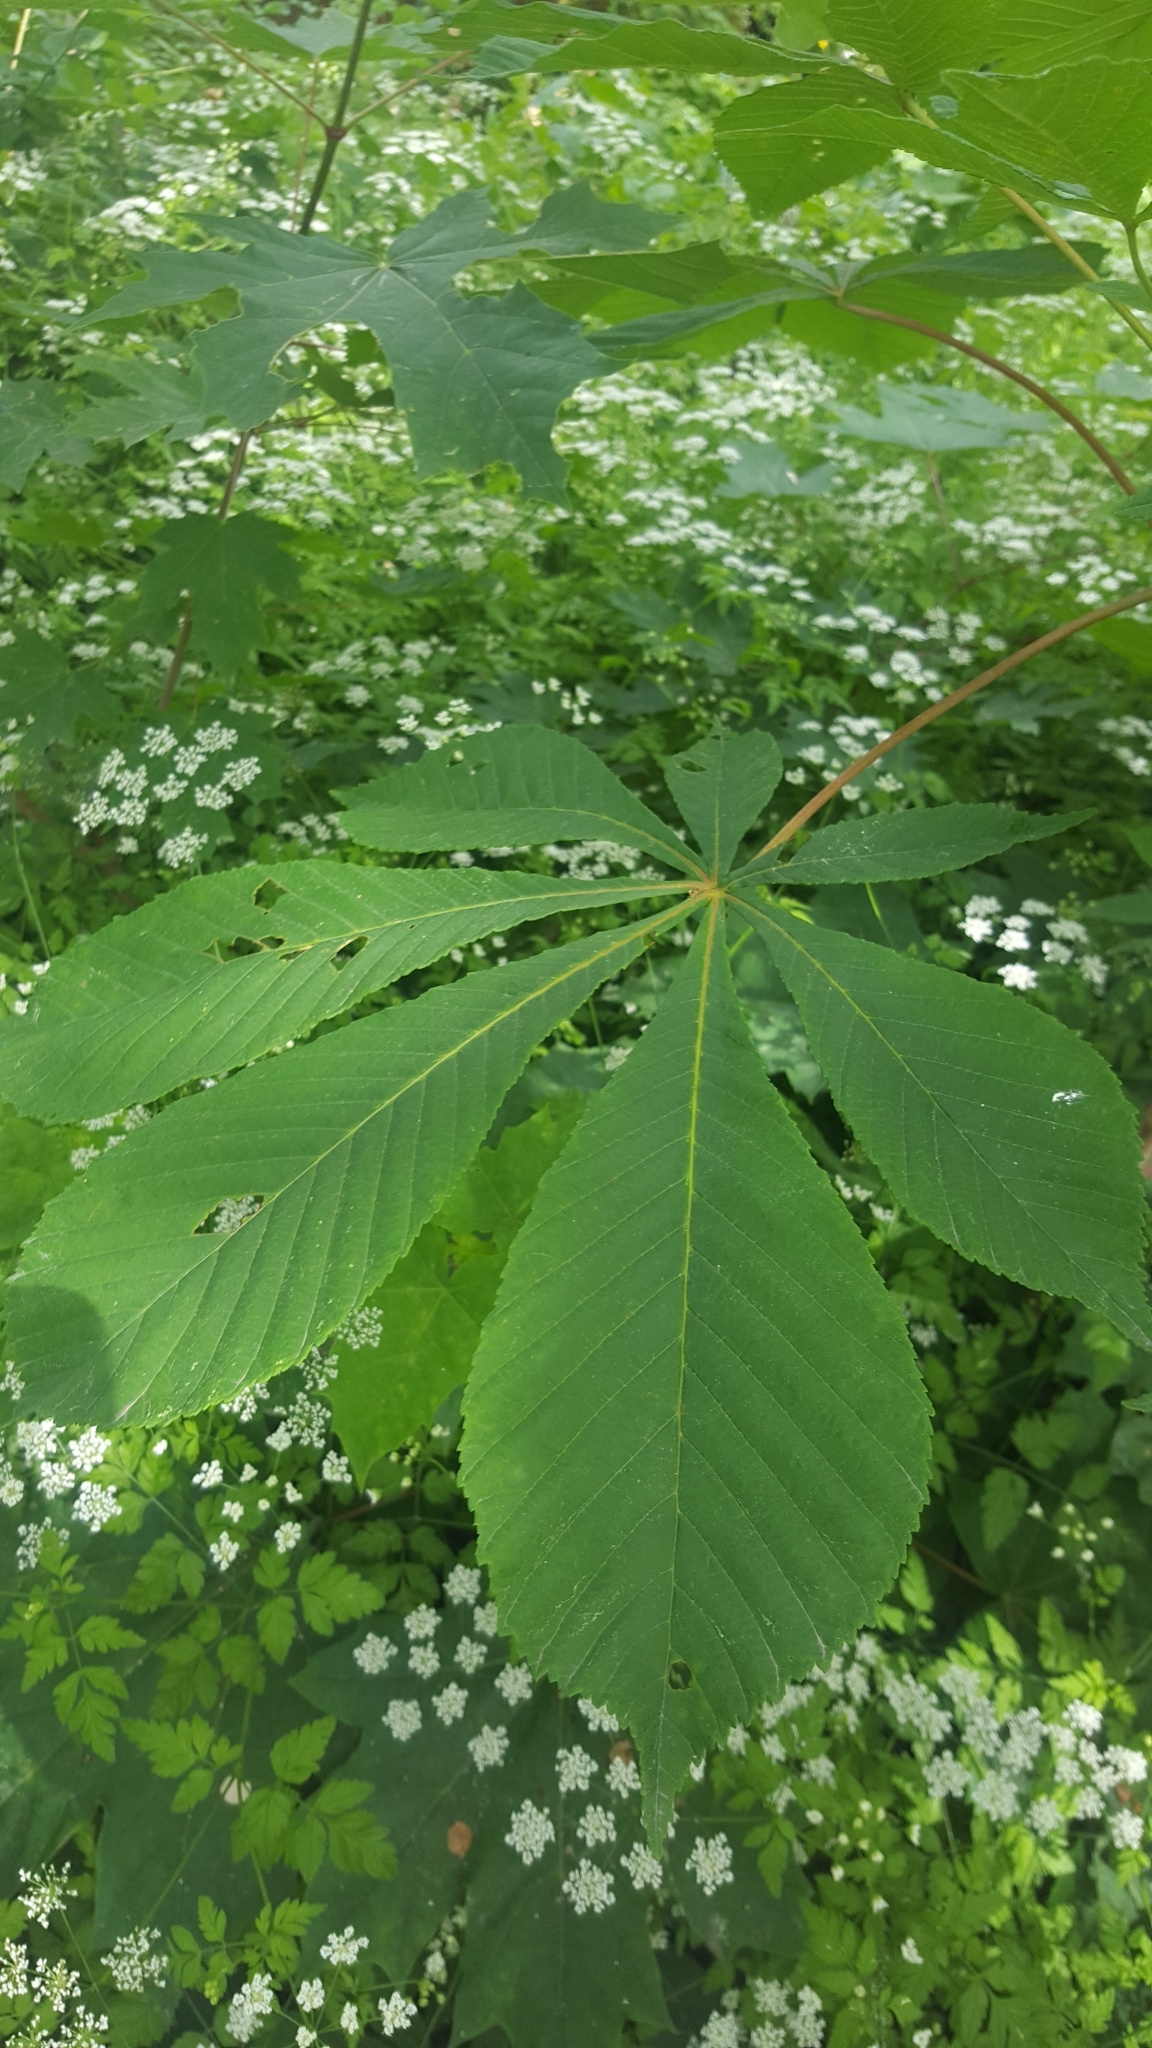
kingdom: Plantae
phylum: Tracheophyta
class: Magnoliopsida
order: Apiales
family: Apiaceae
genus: Chaerophyllum
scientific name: Chaerophyllum temulum
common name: Rough chervil
